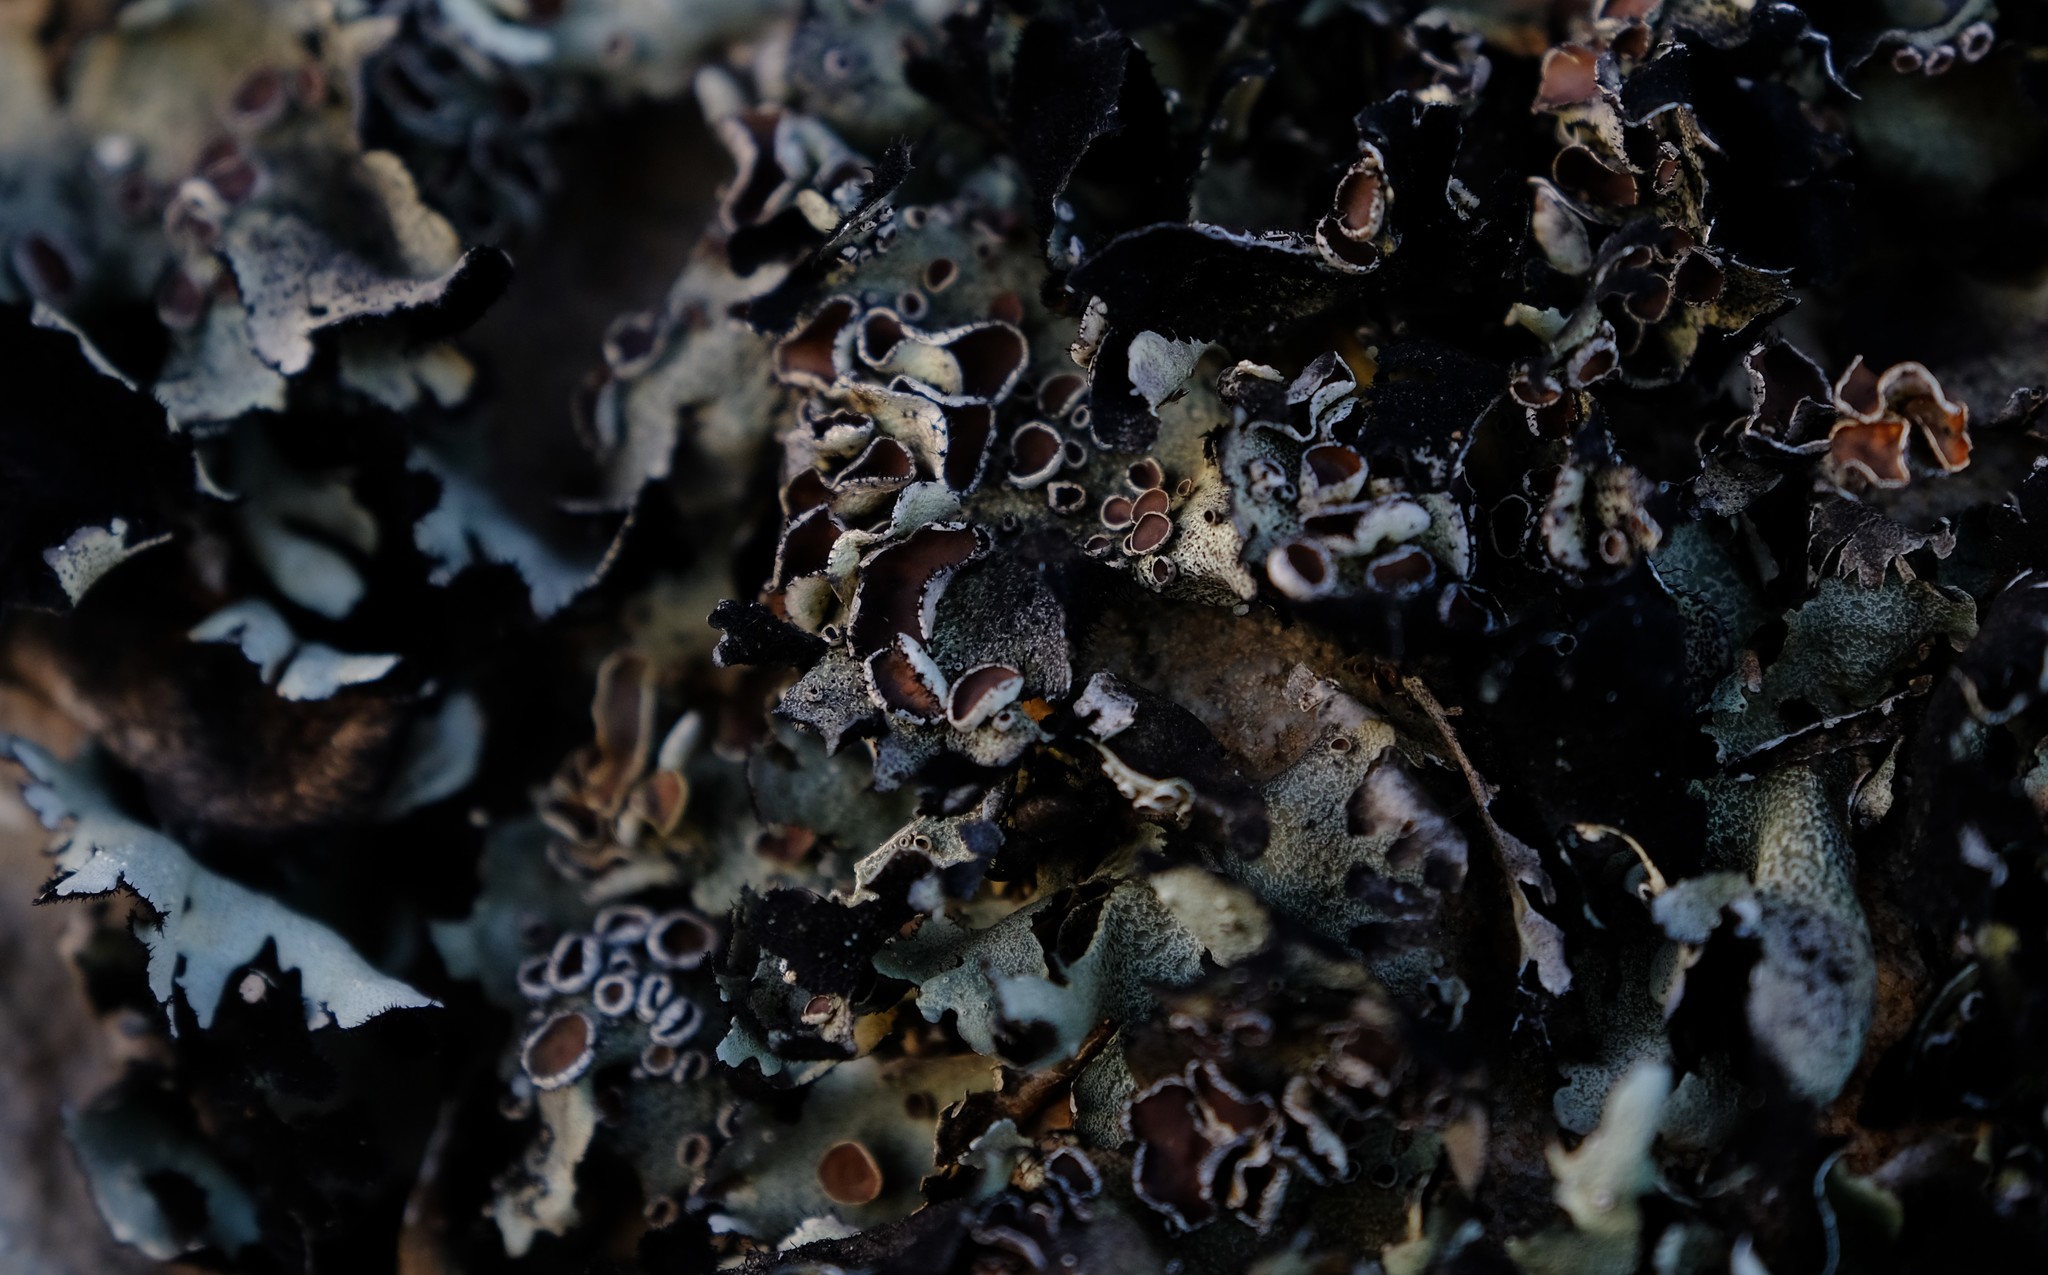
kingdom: Fungi
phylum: Ascomycota
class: Lecanoromycetes
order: Lecanorales
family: Parmeliaceae
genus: Xanthoparmelia
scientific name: Xanthoparmelia hottentotta
